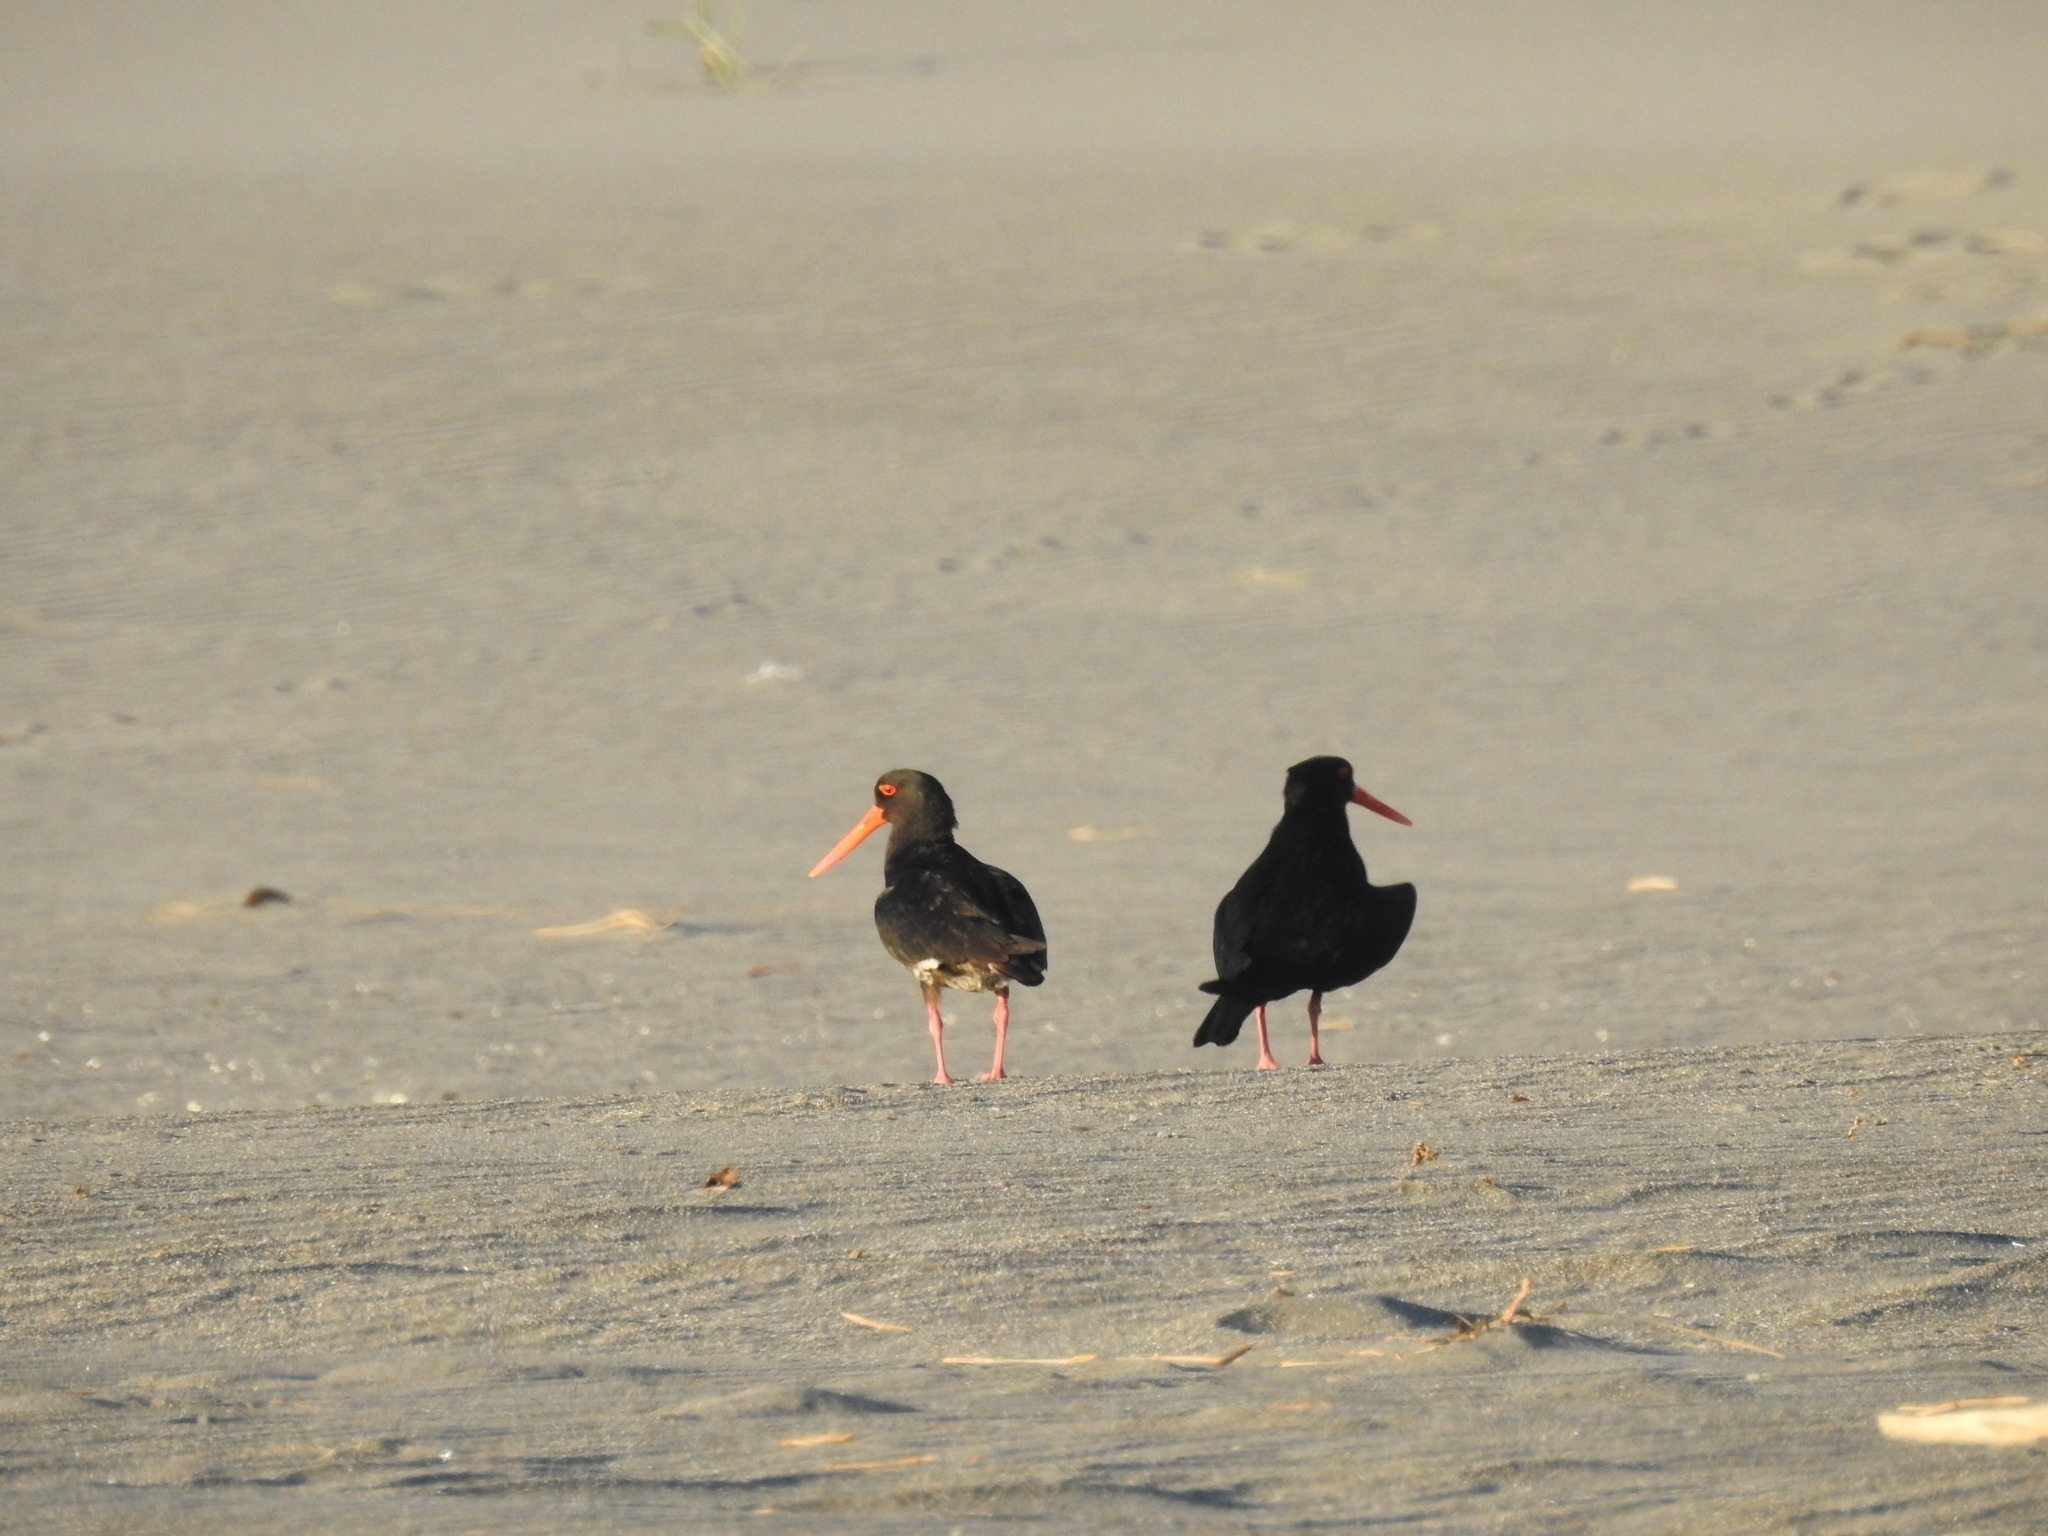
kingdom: Animalia
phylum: Chordata
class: Aves
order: Charadriiformes
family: Haematopodidae
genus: Haematopus
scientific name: Haematopus unicolor
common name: Variable oystercatcher
